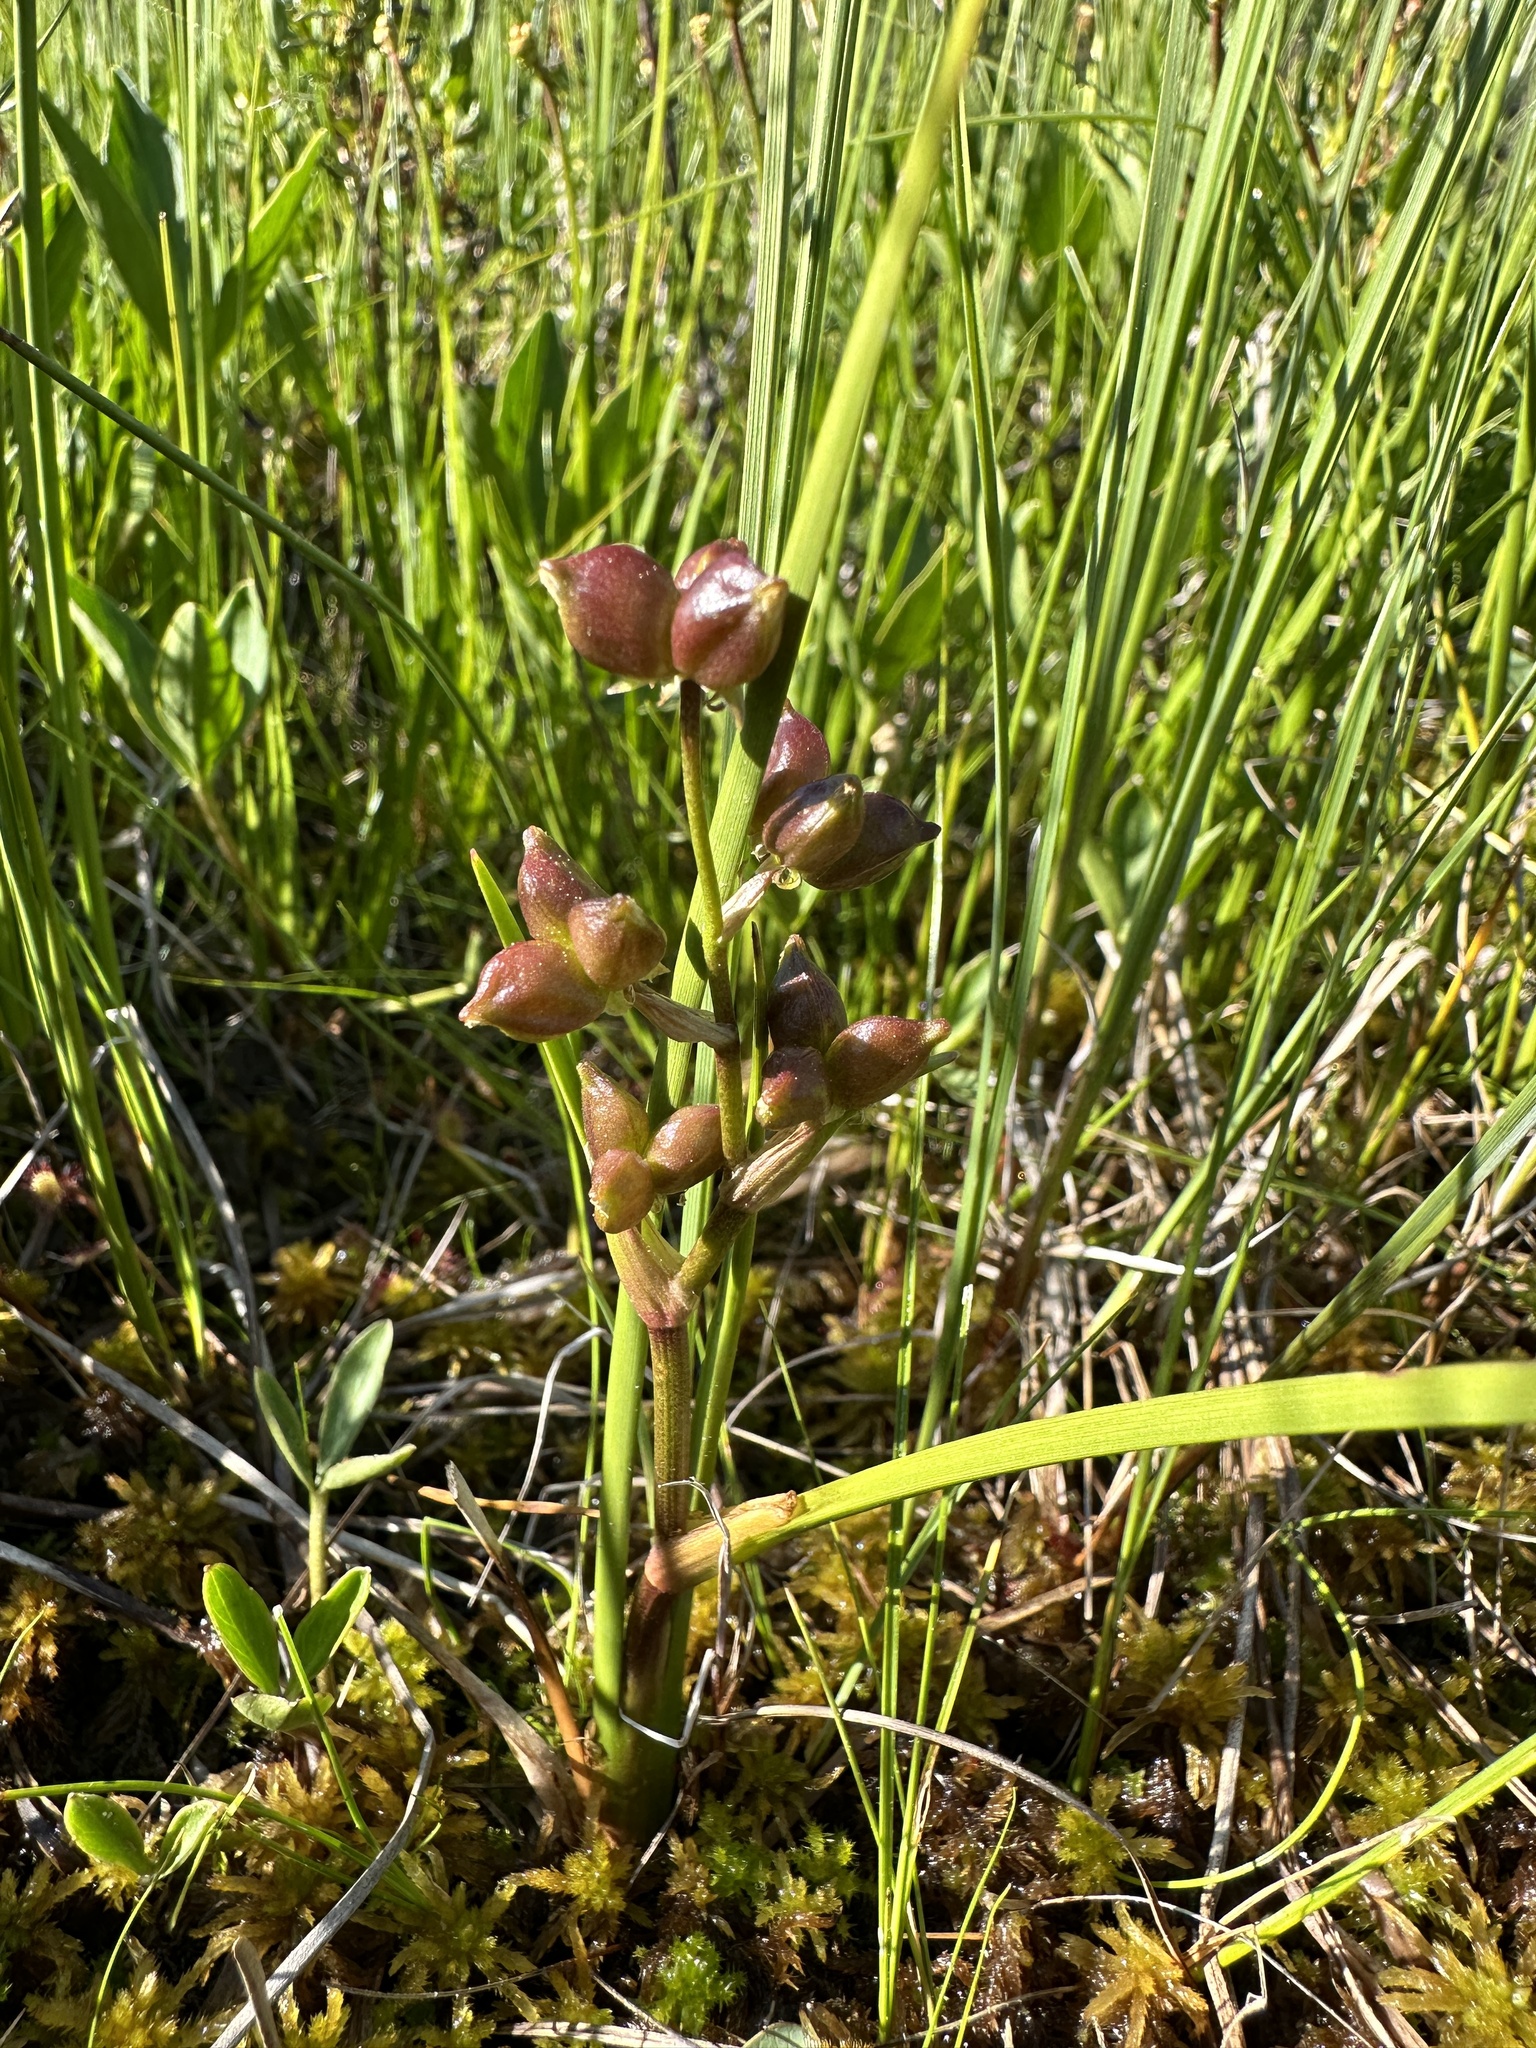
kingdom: Plantae
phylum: Tracheophyta
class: Liliopsida
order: Alismatales
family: Scheuchzeriaceae
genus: Scheuchzeria
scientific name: Scheuchzeria palustris
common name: Rannoch-rush
